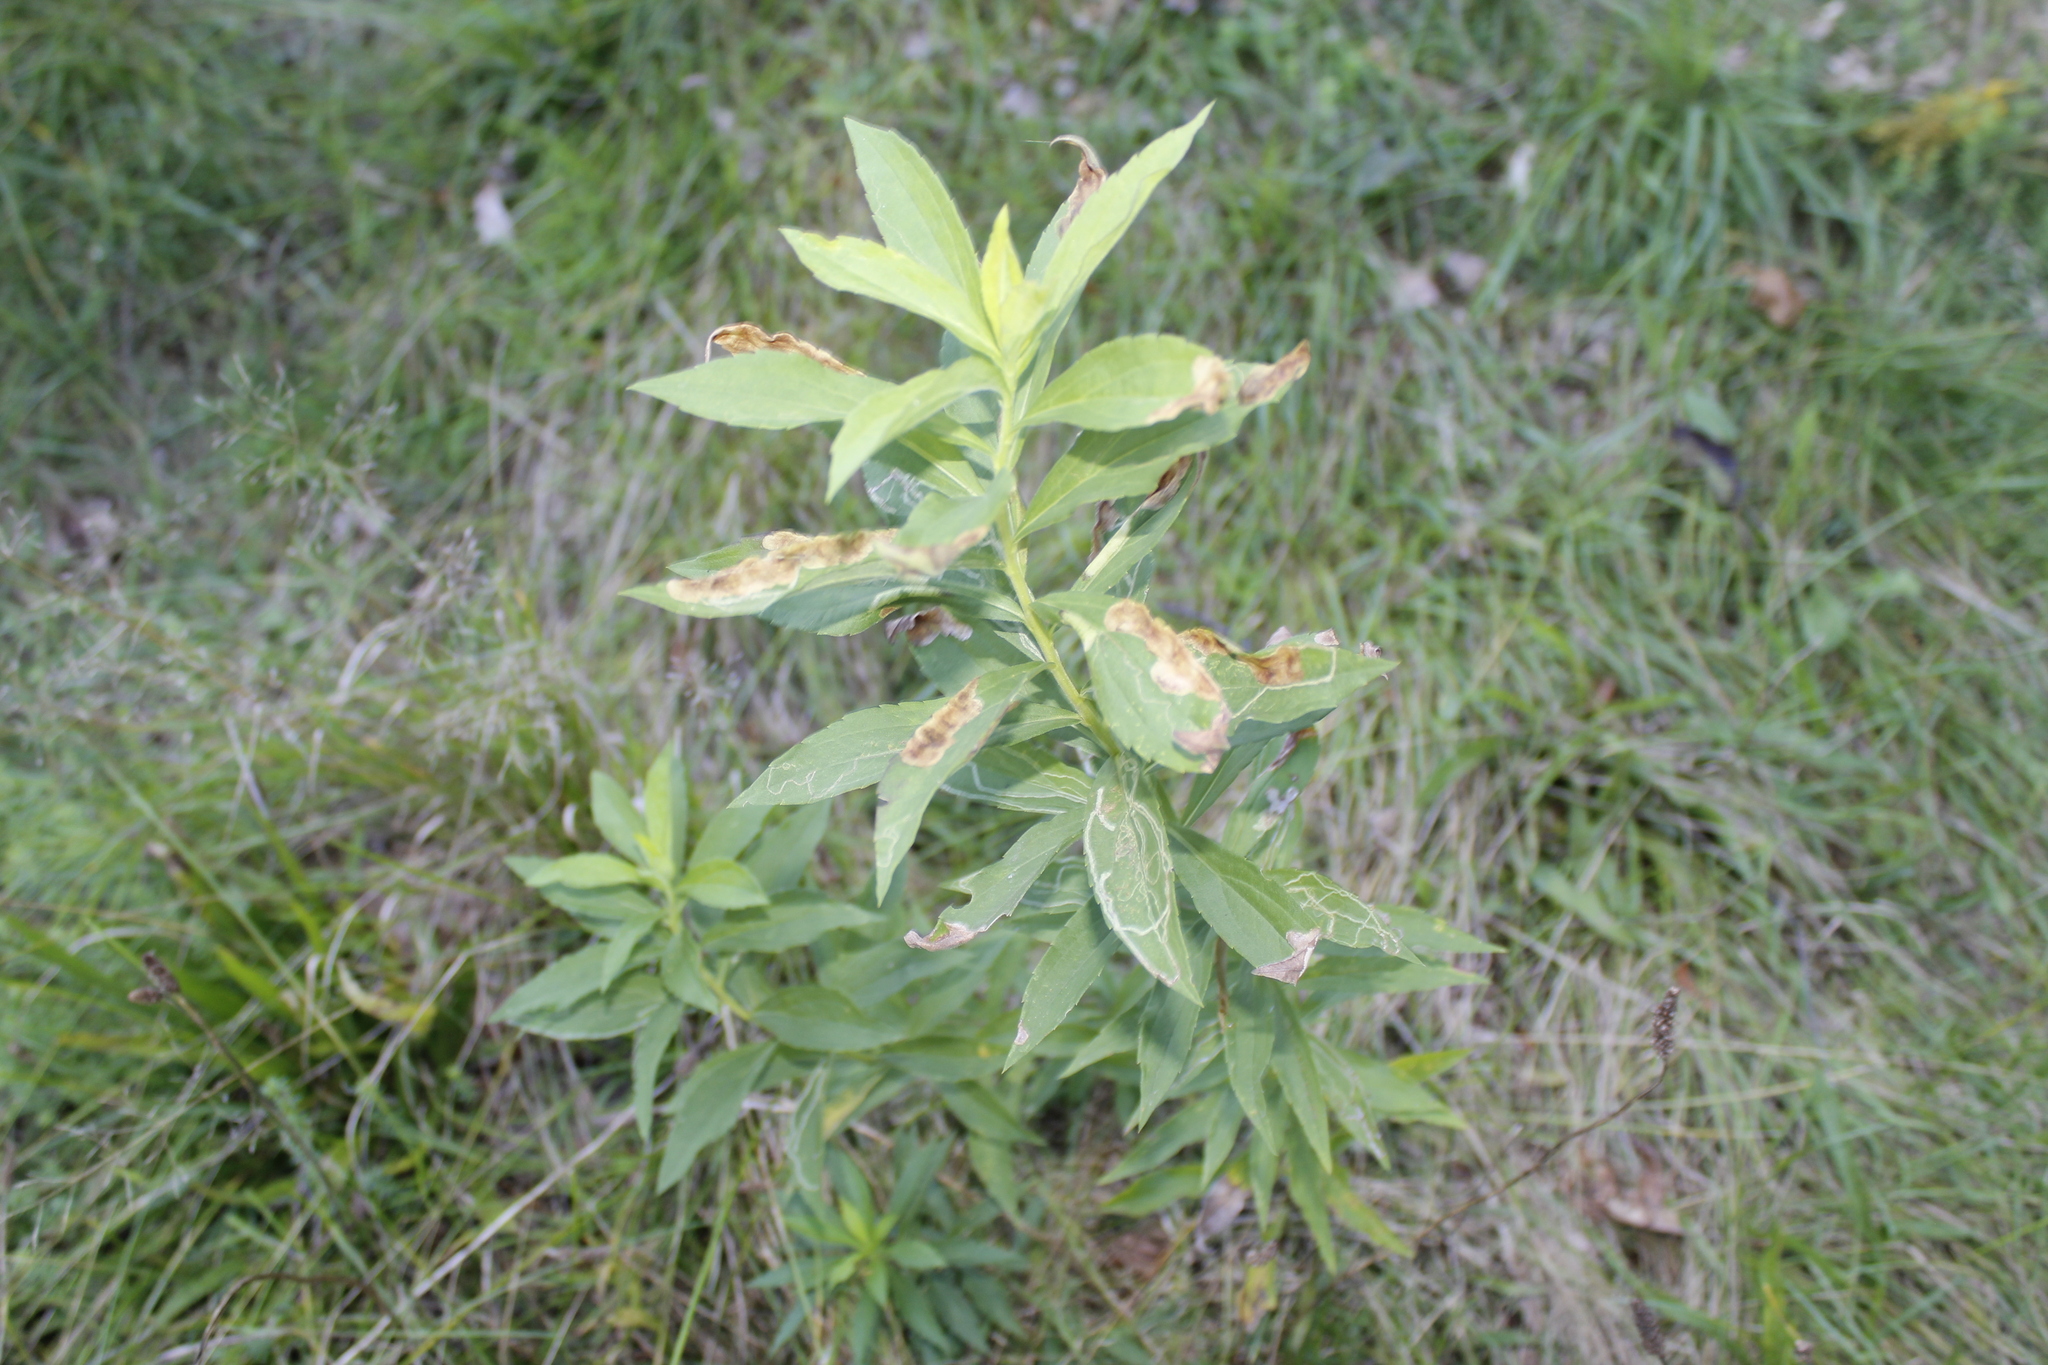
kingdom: Animalia
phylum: Arthropoda
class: Insecta
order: Diptera
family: Agromyzidae
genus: Nemorimyza
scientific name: Nemorimyza posticata
